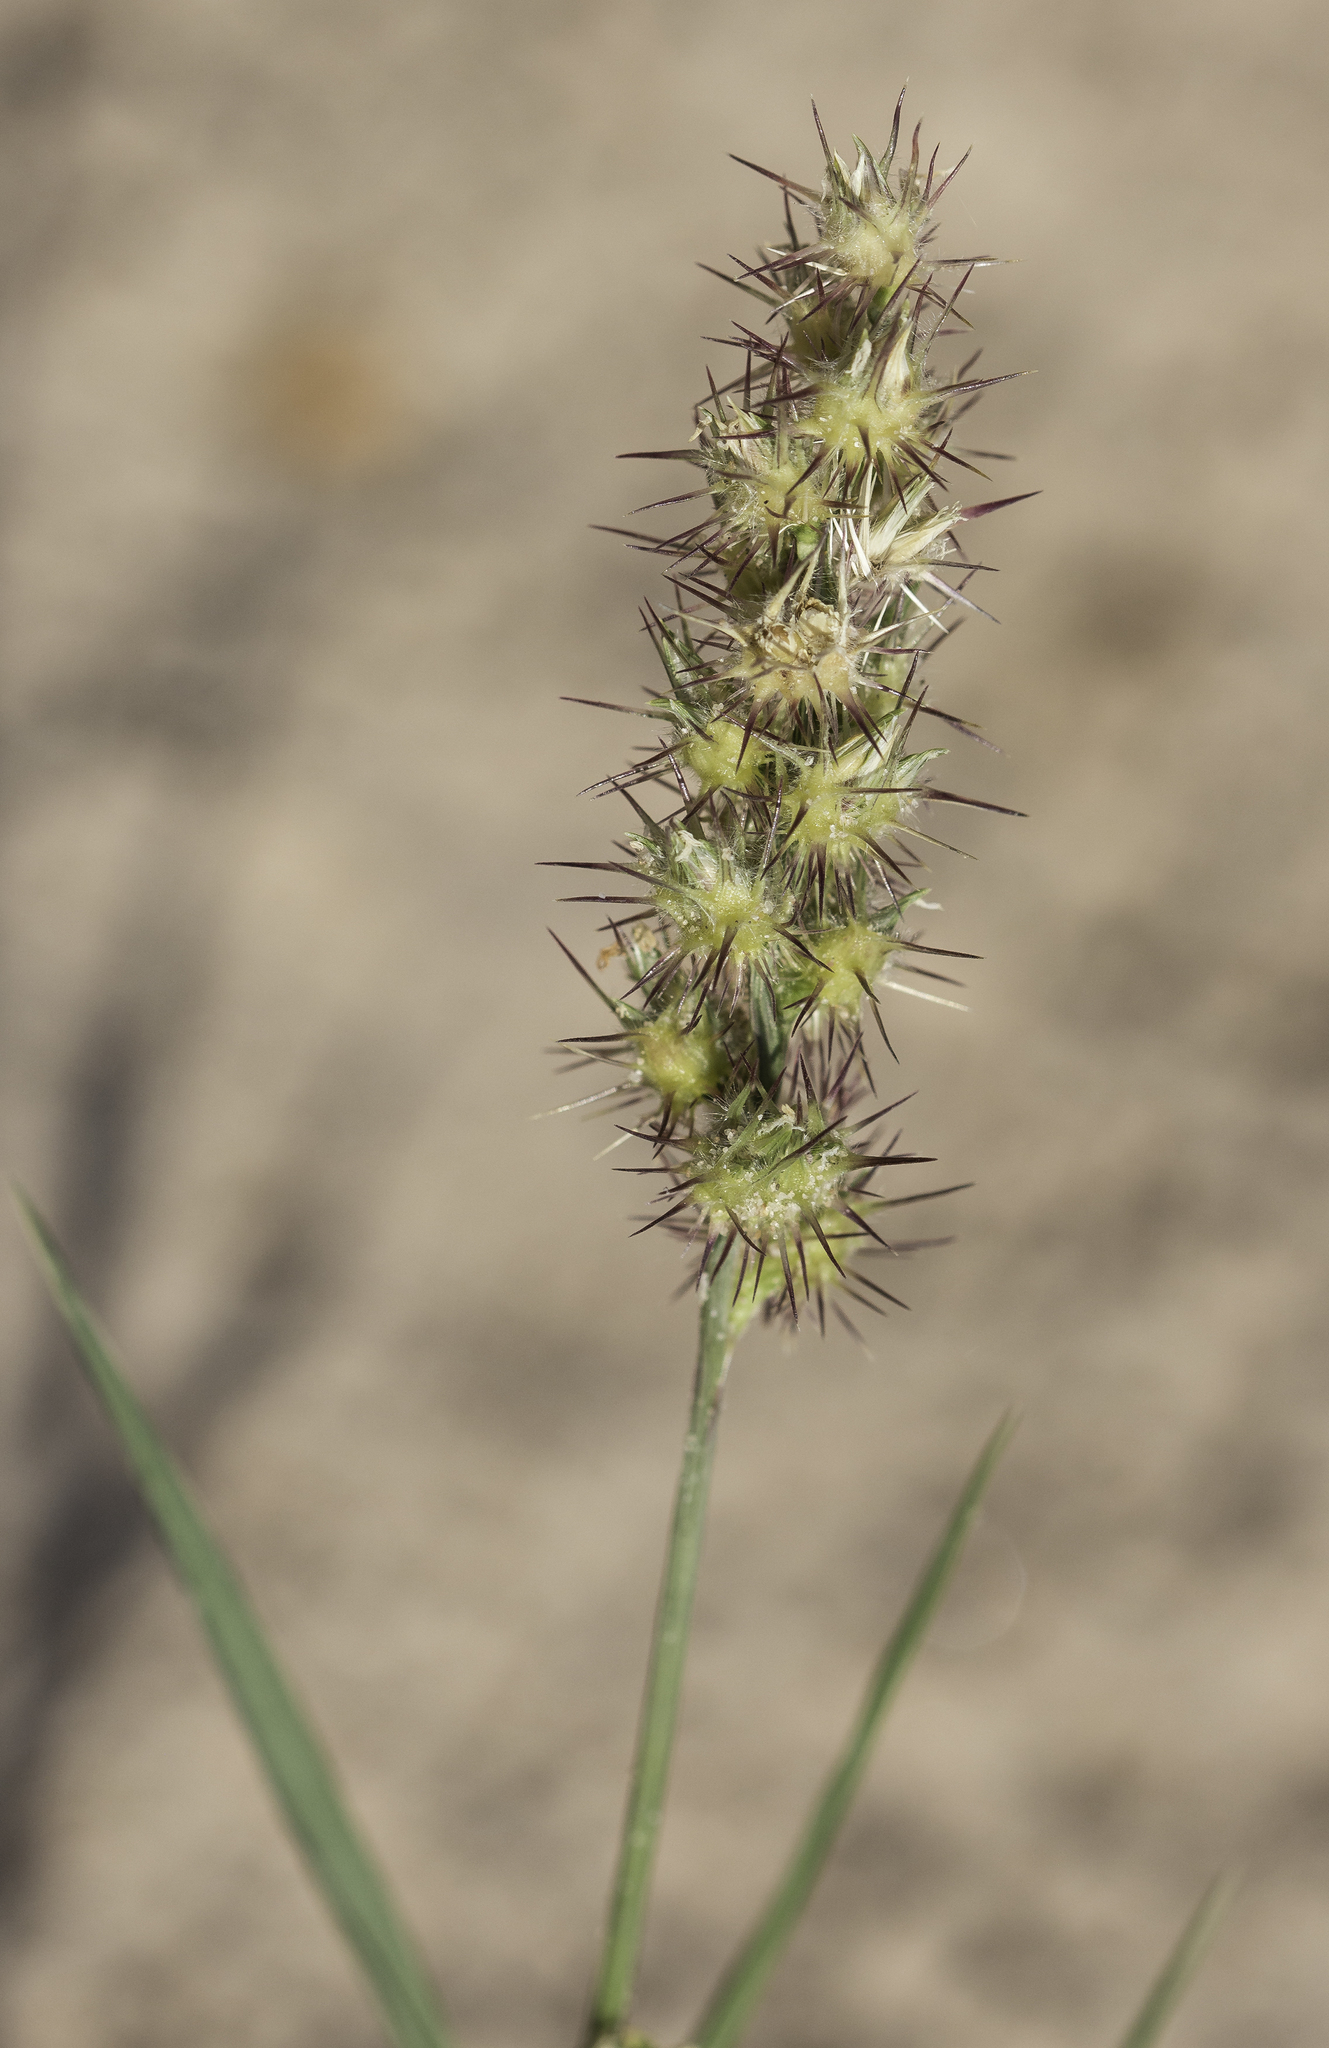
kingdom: Plantae
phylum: Tracheophyta
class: Liliopsida
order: Poales
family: Poaceae
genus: Cenchrus
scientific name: Cenchrus longispinus
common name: Mat sandbur
